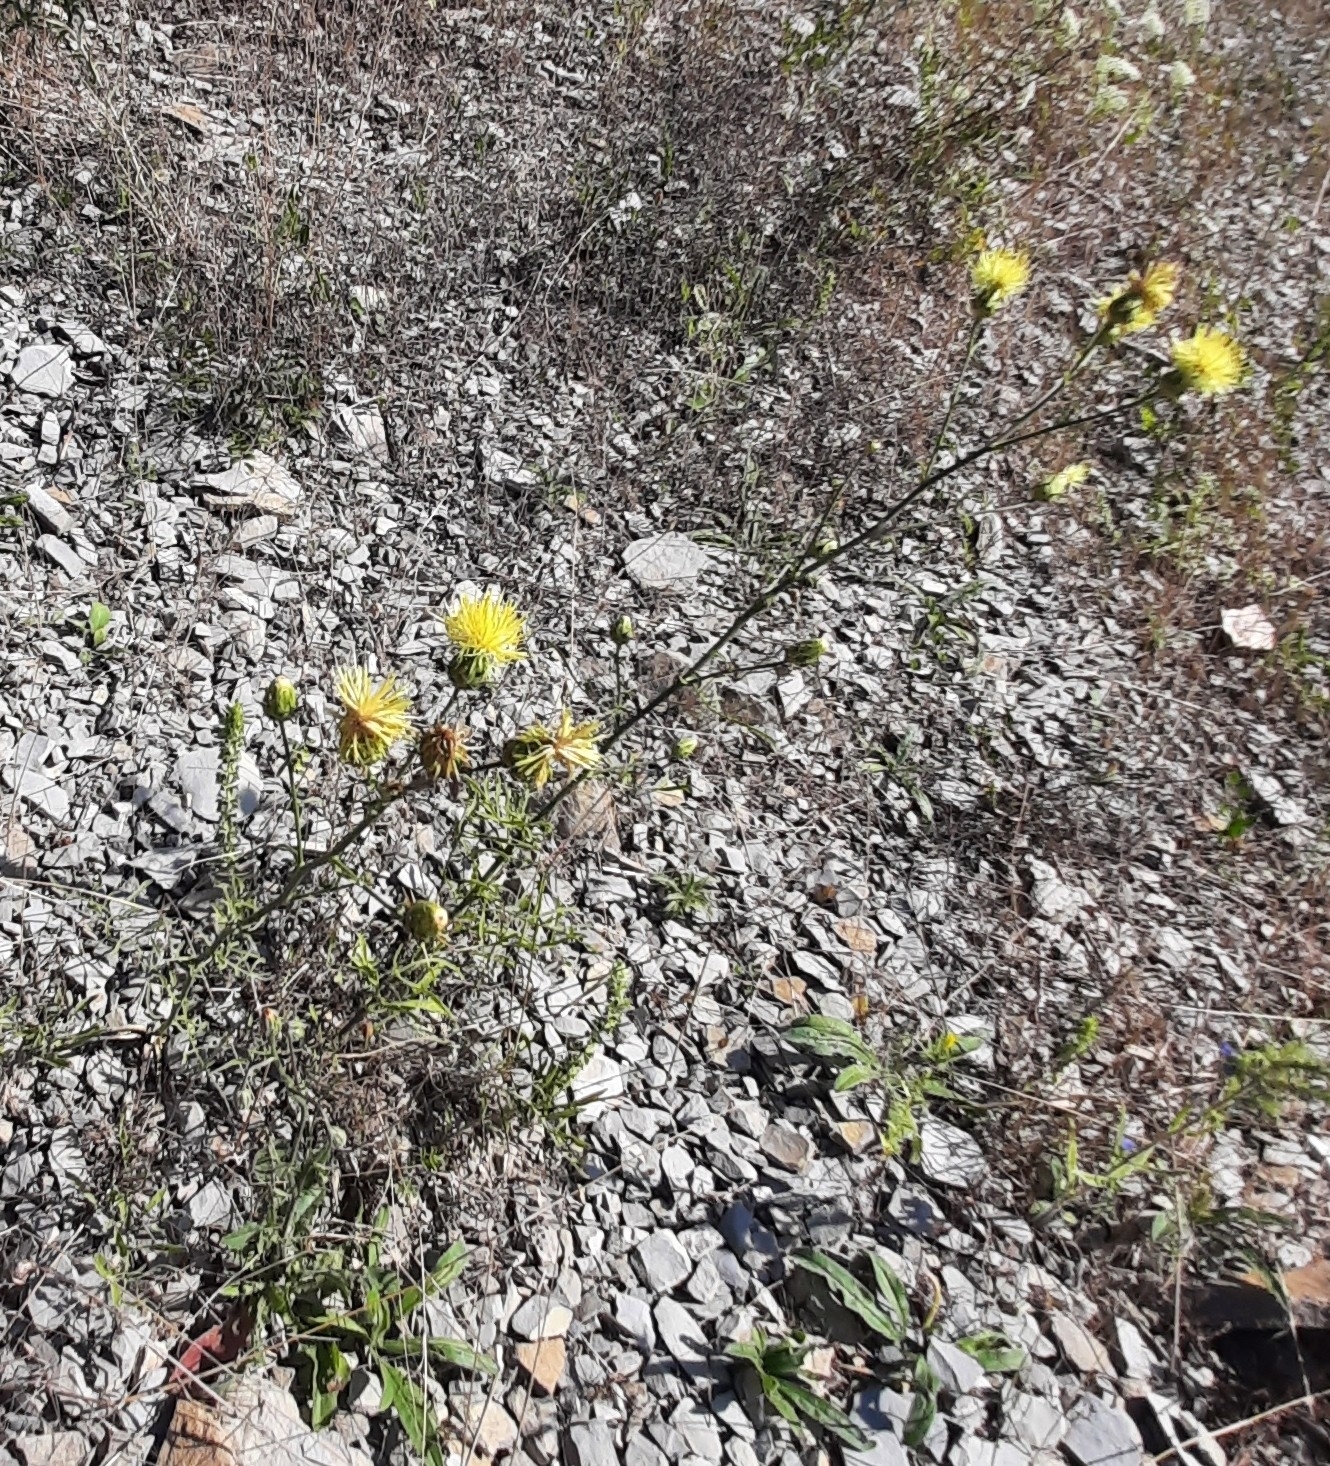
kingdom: Plantae
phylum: Tracheophyta
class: Magnoliopsida
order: Asterales
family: Asteraceae
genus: Centaurea
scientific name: Centaurea salonitana
